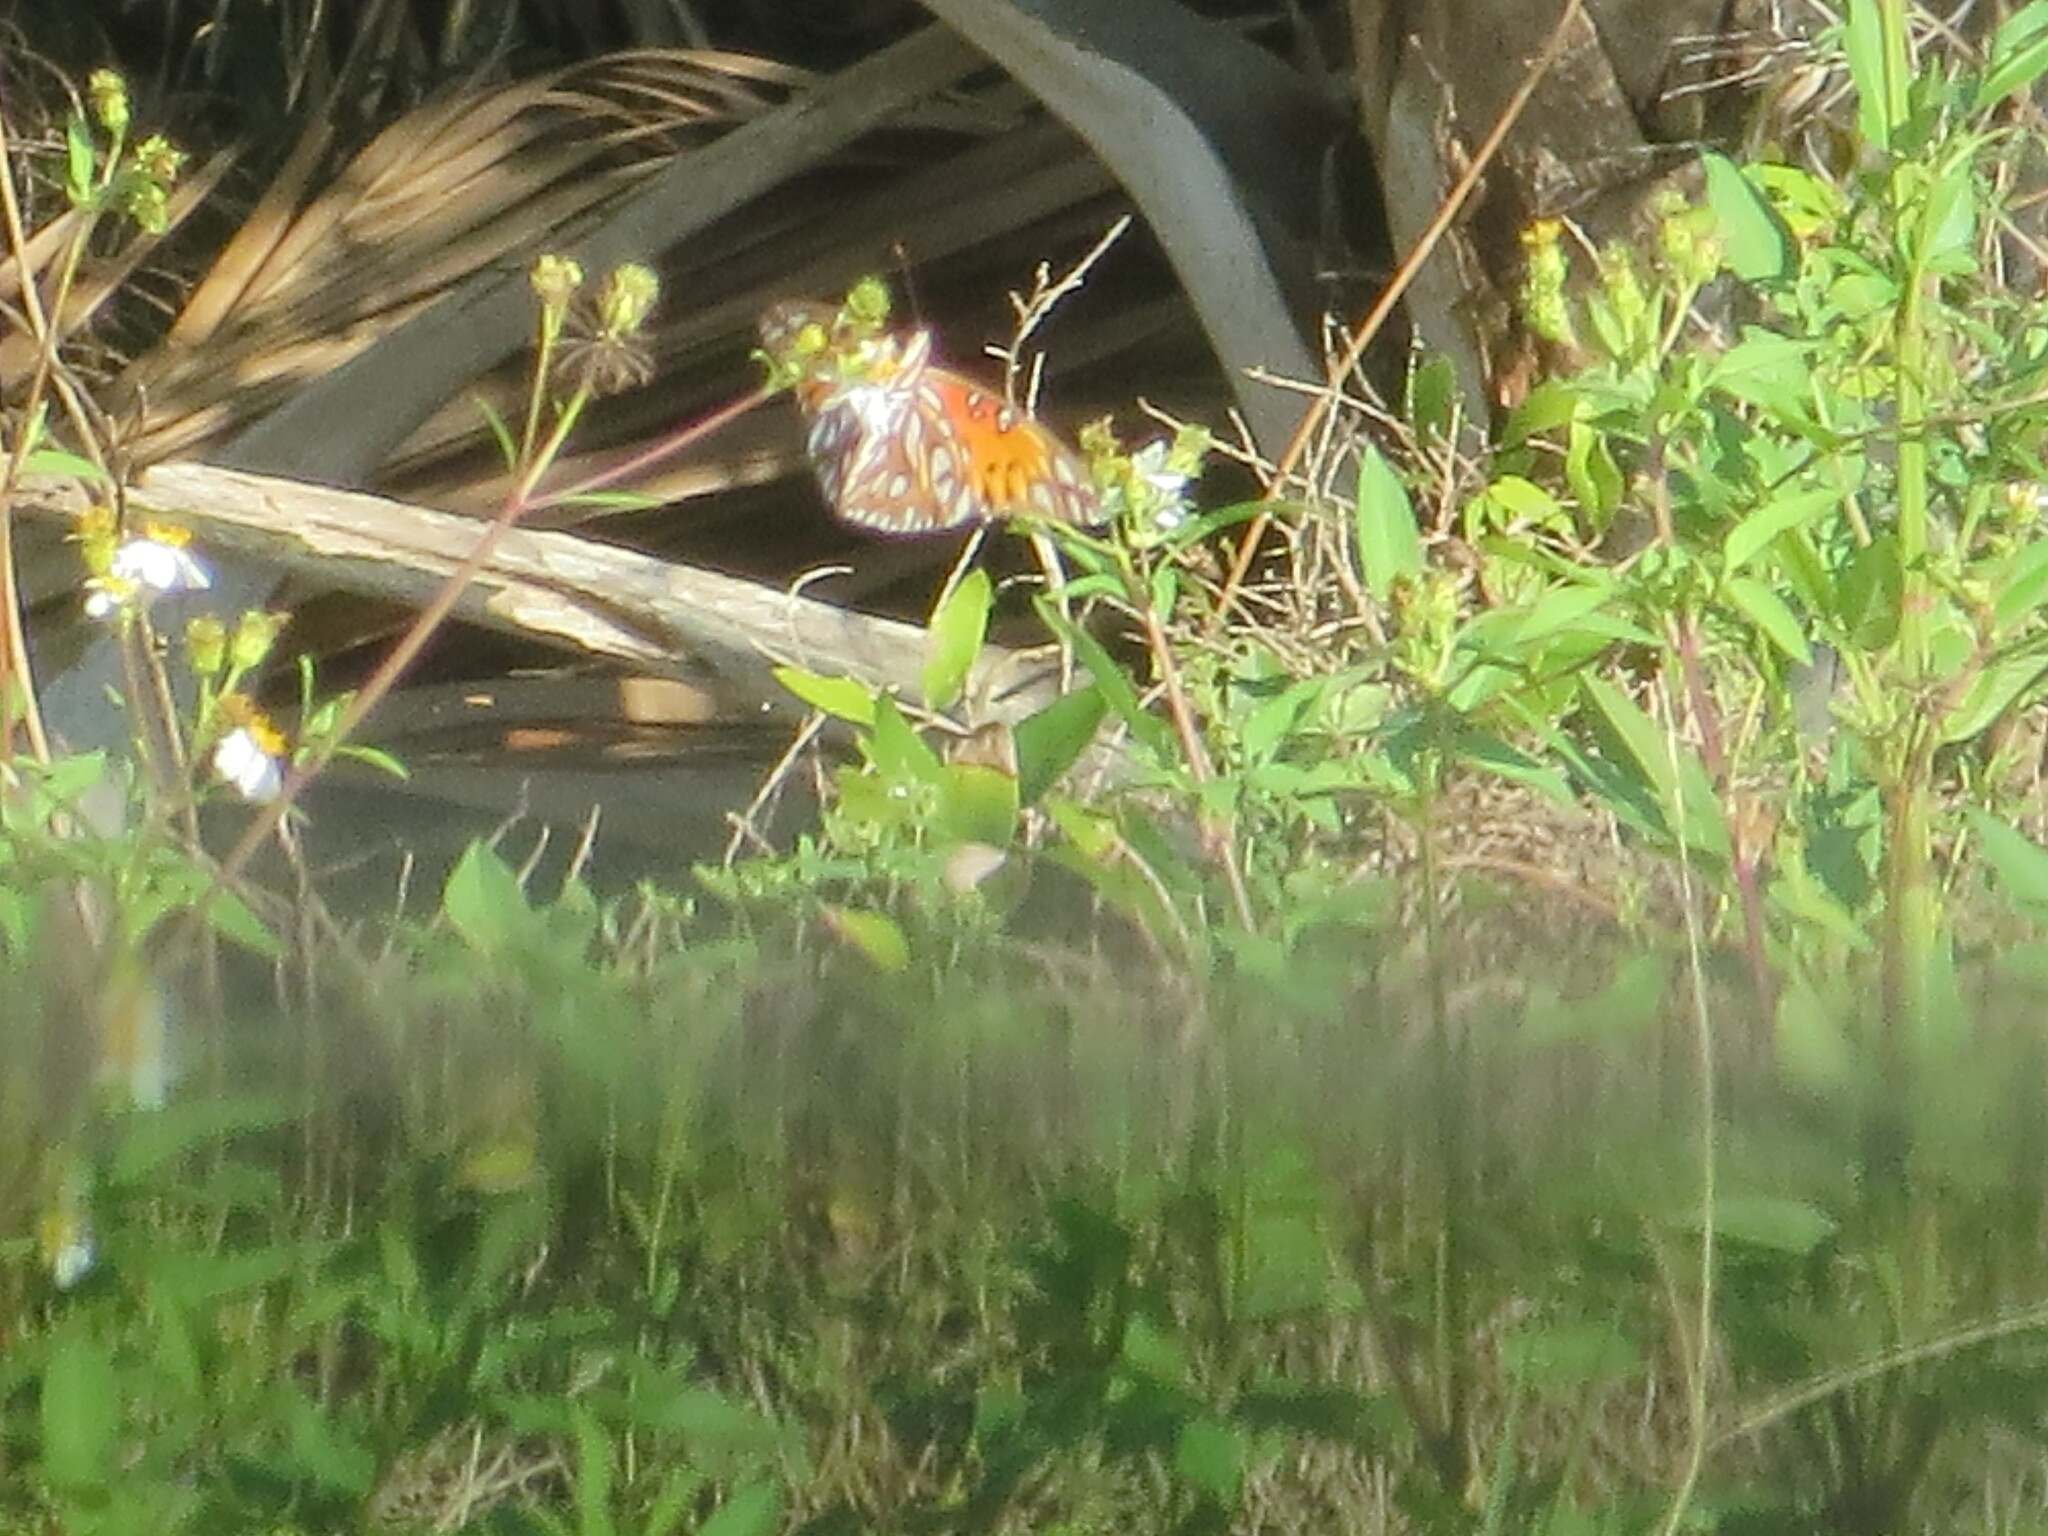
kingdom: Animalia
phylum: Arthropoda
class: Insecta
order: Lepidoptera
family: Nymphalidae
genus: Dione
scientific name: Dione vanillae
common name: Gulf fritillary
